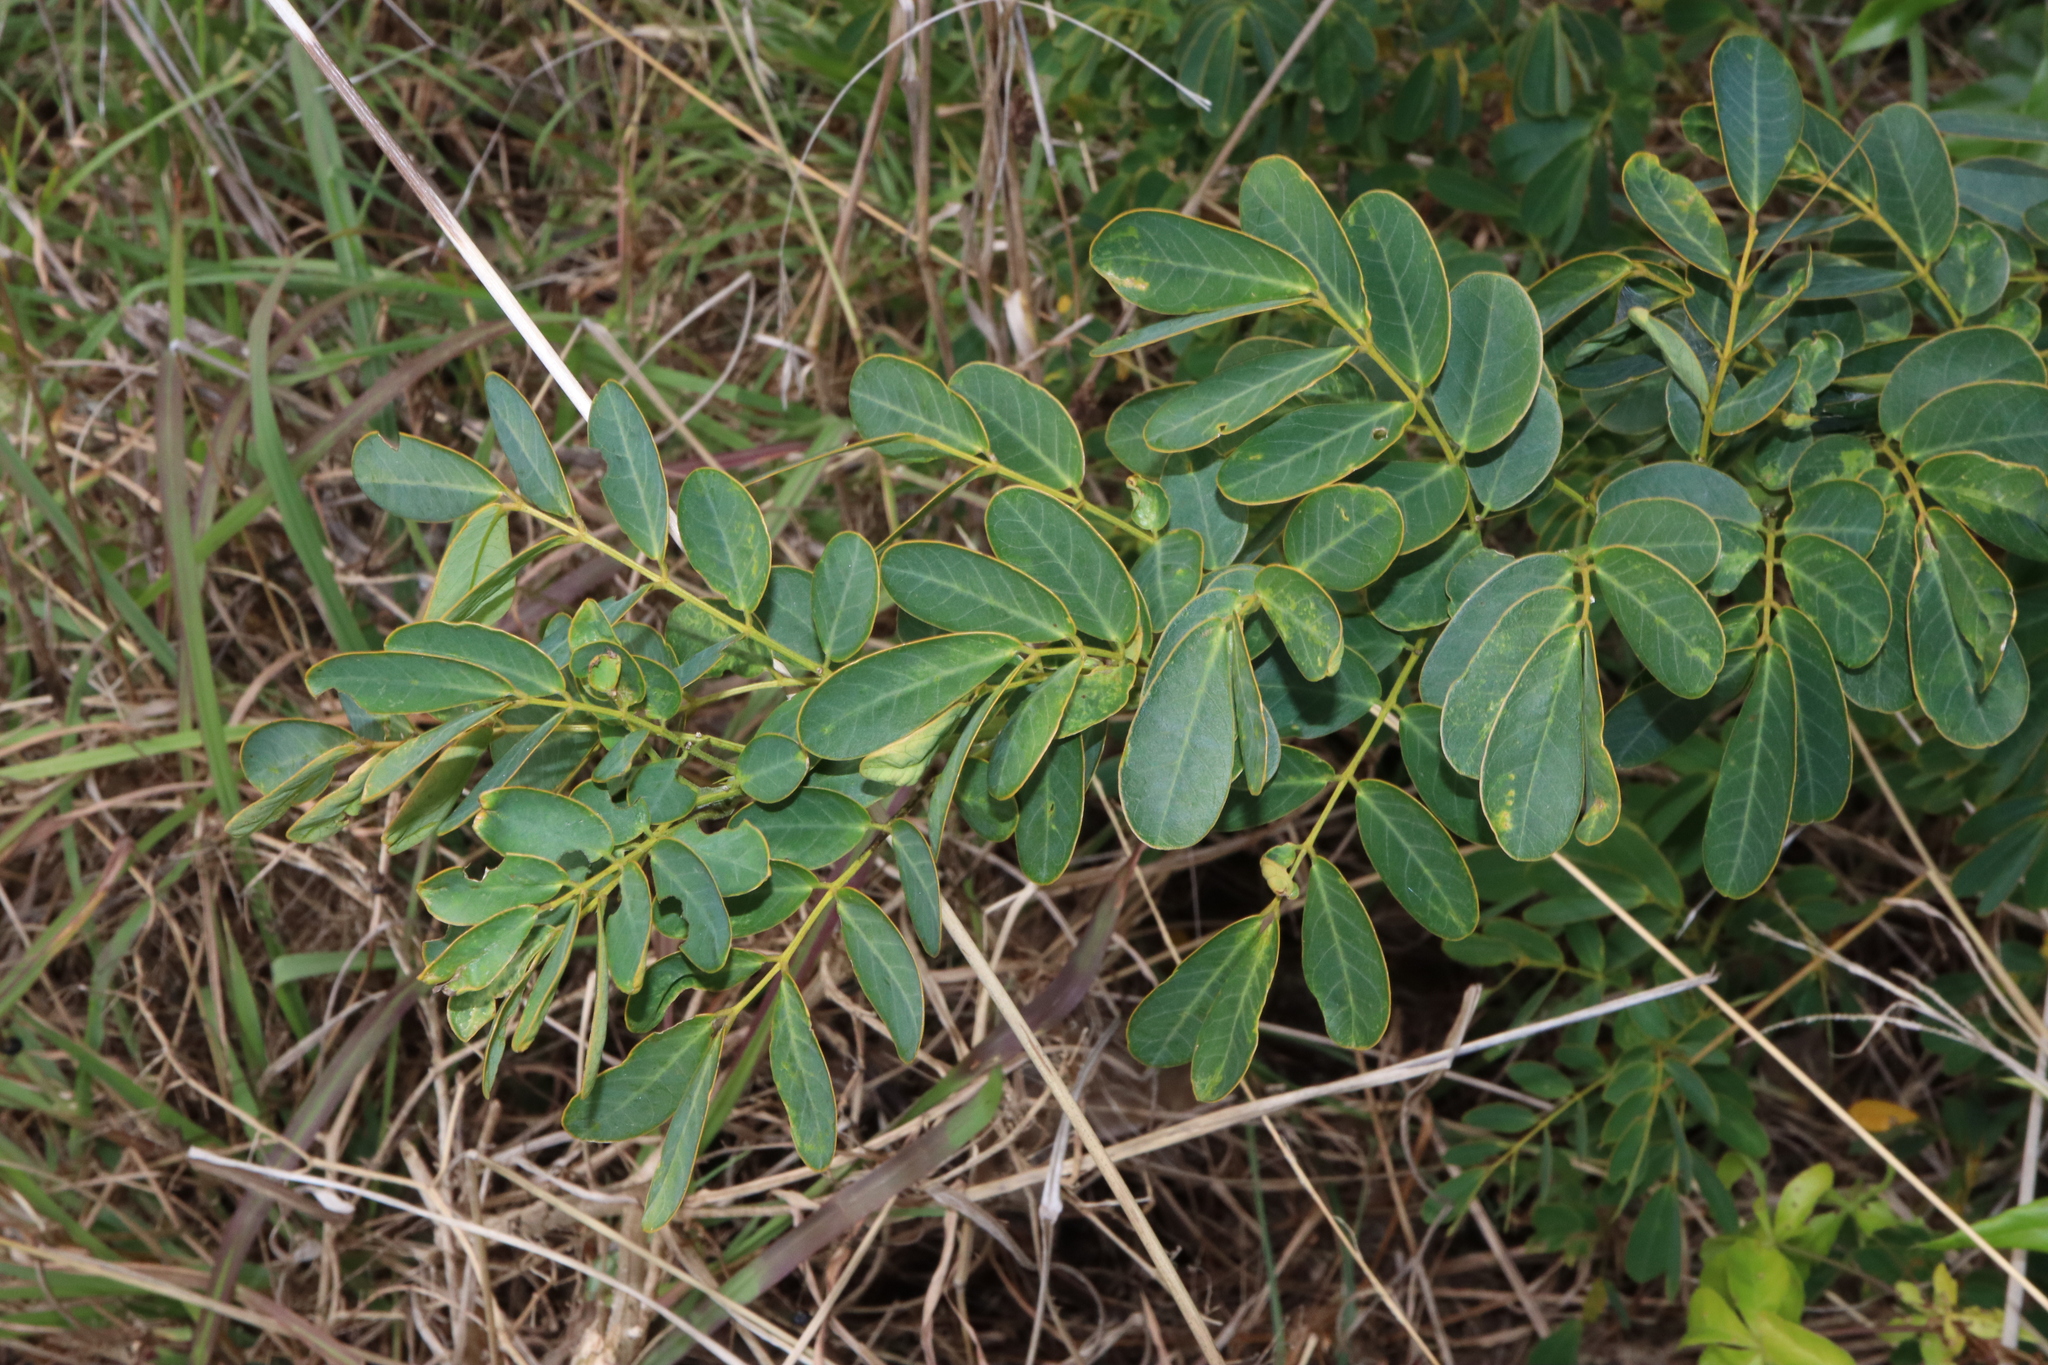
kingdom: Plantae
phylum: Tracheophyta
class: Magnoliopsida
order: Fabales
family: Fabaceae
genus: Senna
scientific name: Senna pendula
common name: Easter cassia
